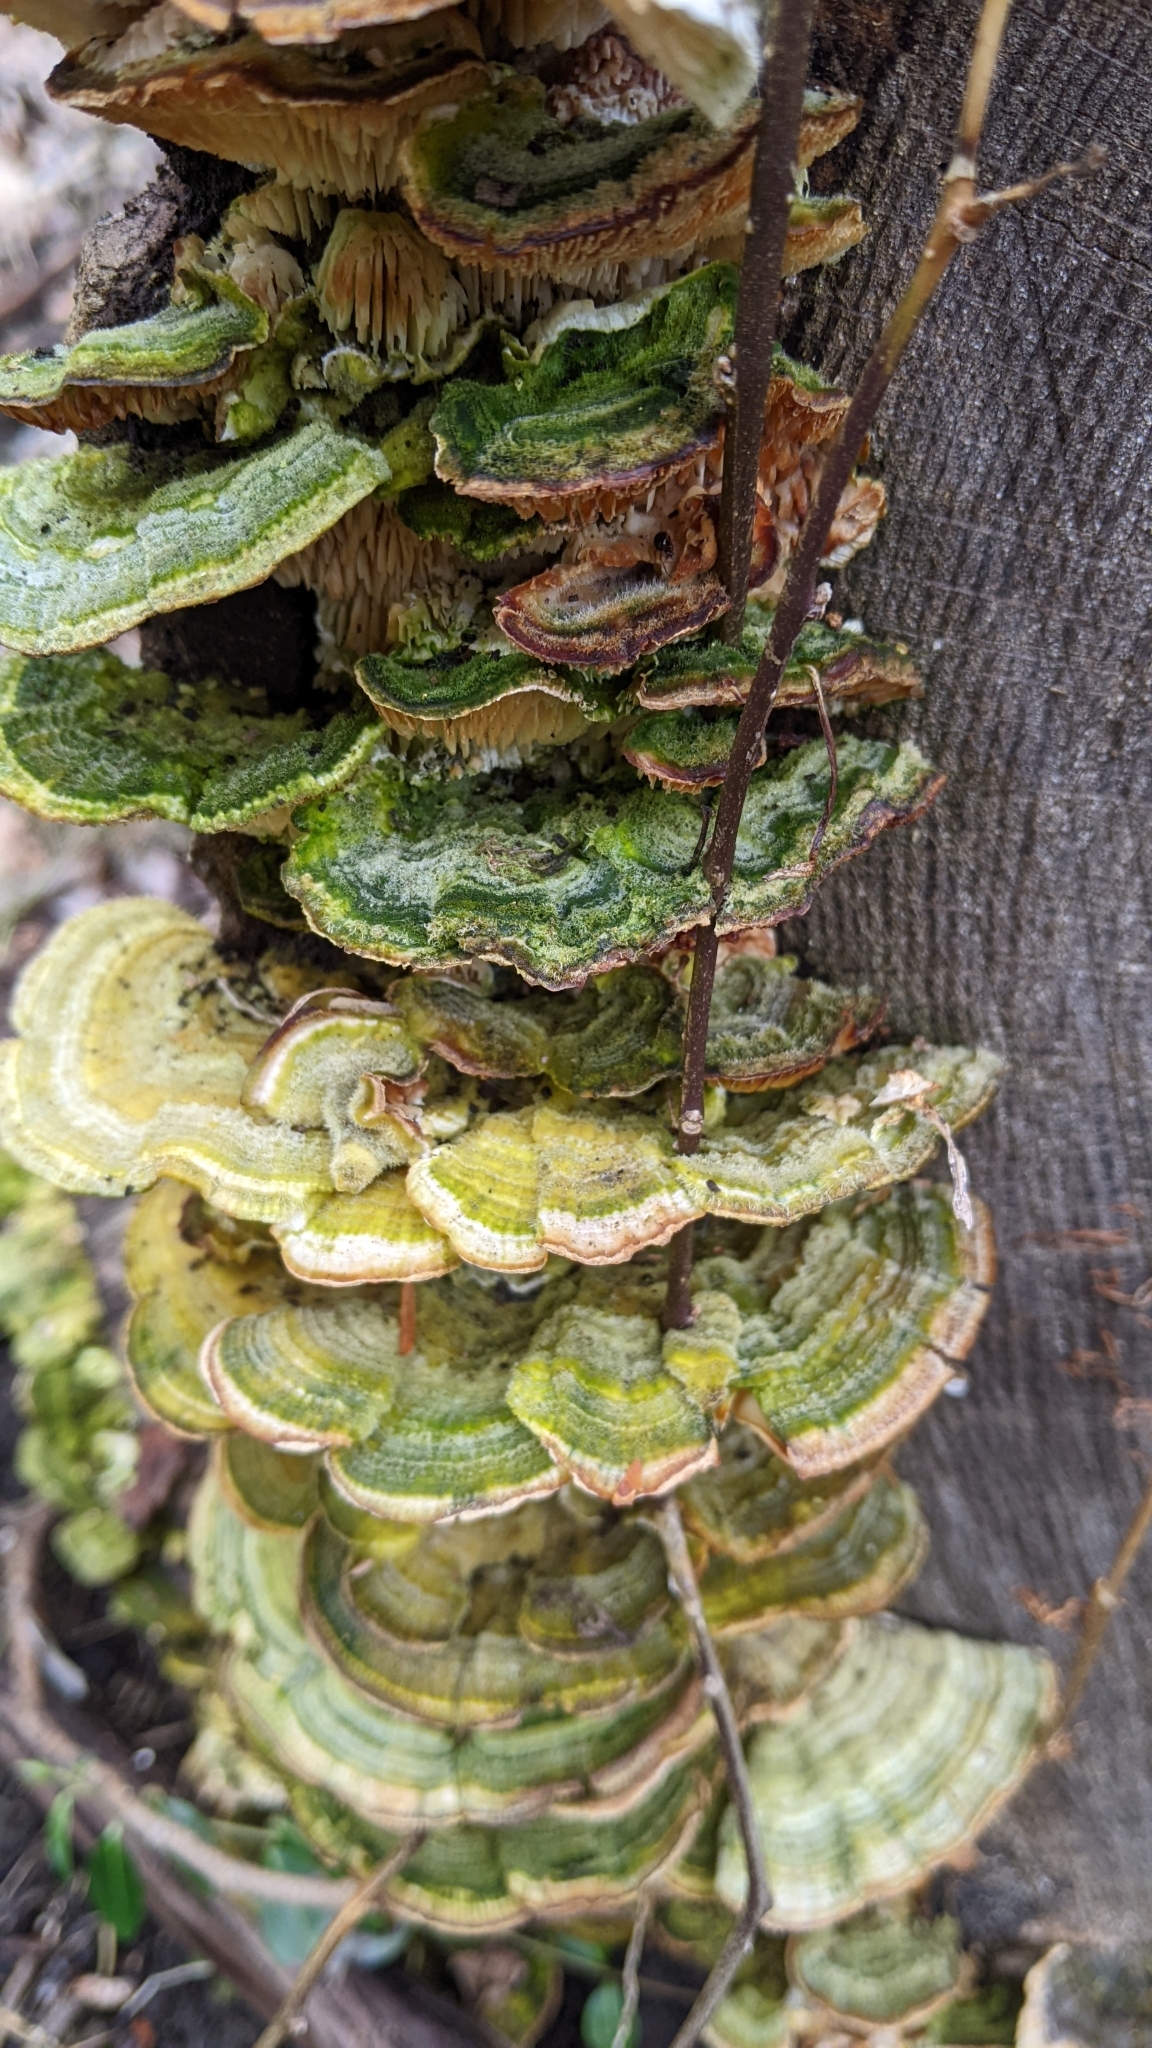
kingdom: Fungi
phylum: Basidiomycota
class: Agaricomycetes
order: Polyporales
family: Polyporaceae
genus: Lenzites
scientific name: Lenzites betulinus
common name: Birch mazegill
